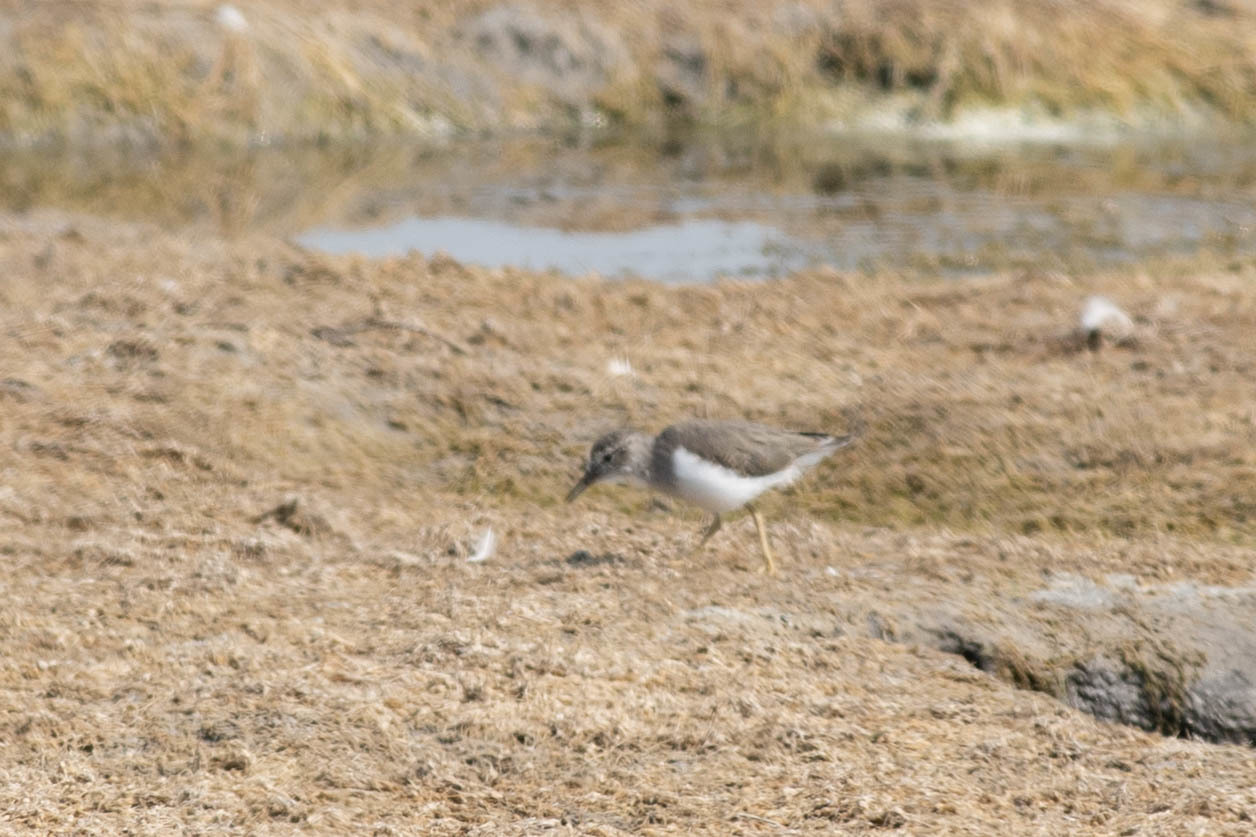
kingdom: Animalia
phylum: Chordata
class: Aves
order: Charadriiformes
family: Scolopacidae
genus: Actitis
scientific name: Actitis macularius
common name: Spotted sandpiper
